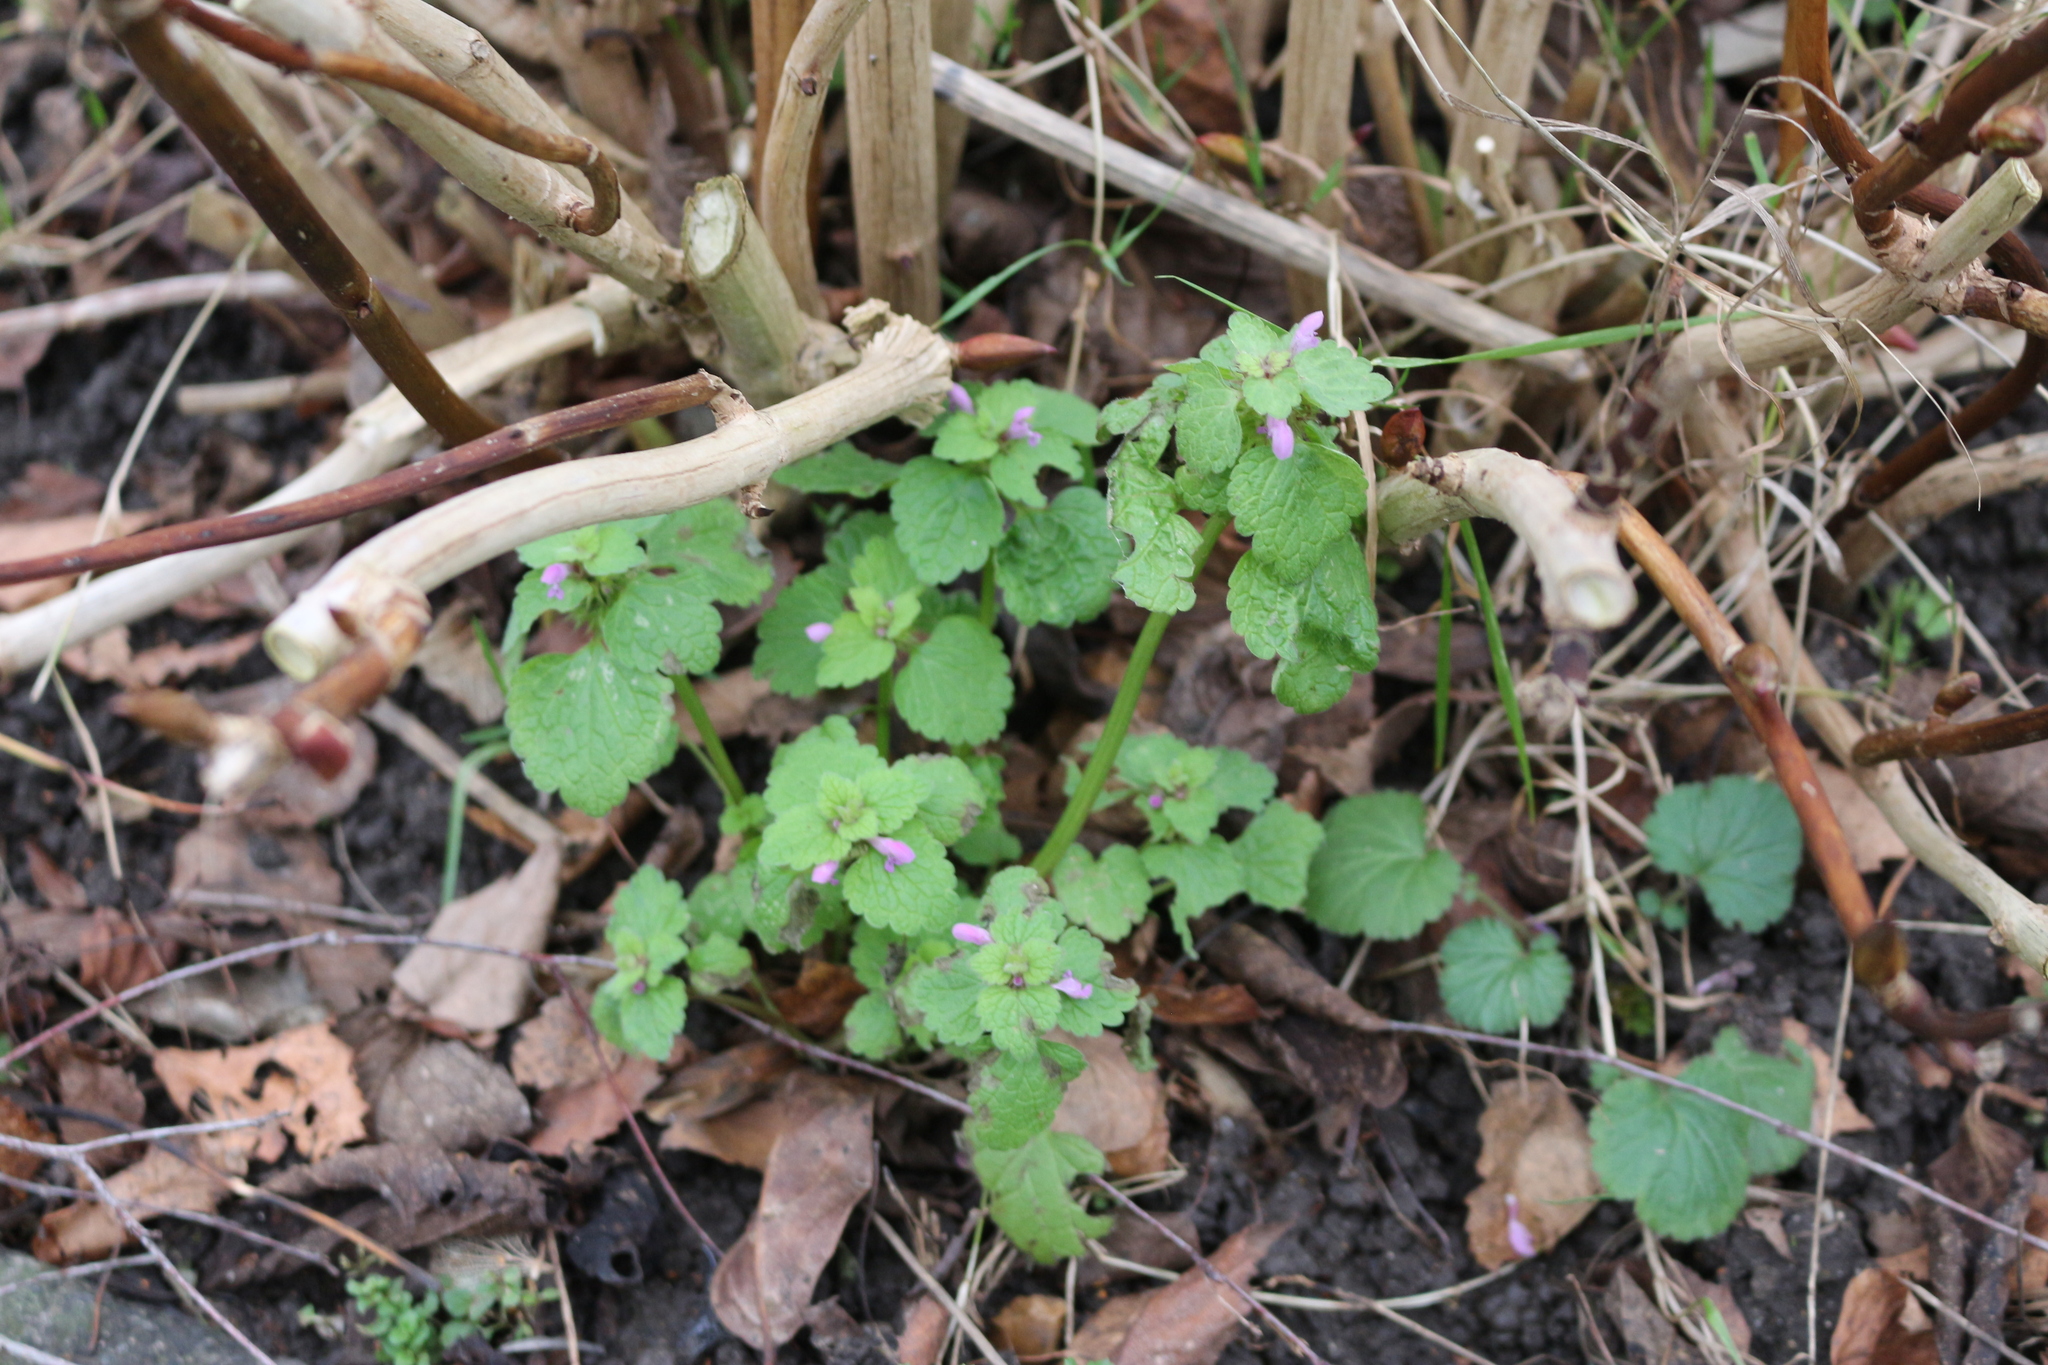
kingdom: Plantae
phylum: Tracheophyta
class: Magnoliopsida
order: Lamiales
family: Lamiaceae
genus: Lamium
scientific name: Lamium purpureum
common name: Red dead-nettle
